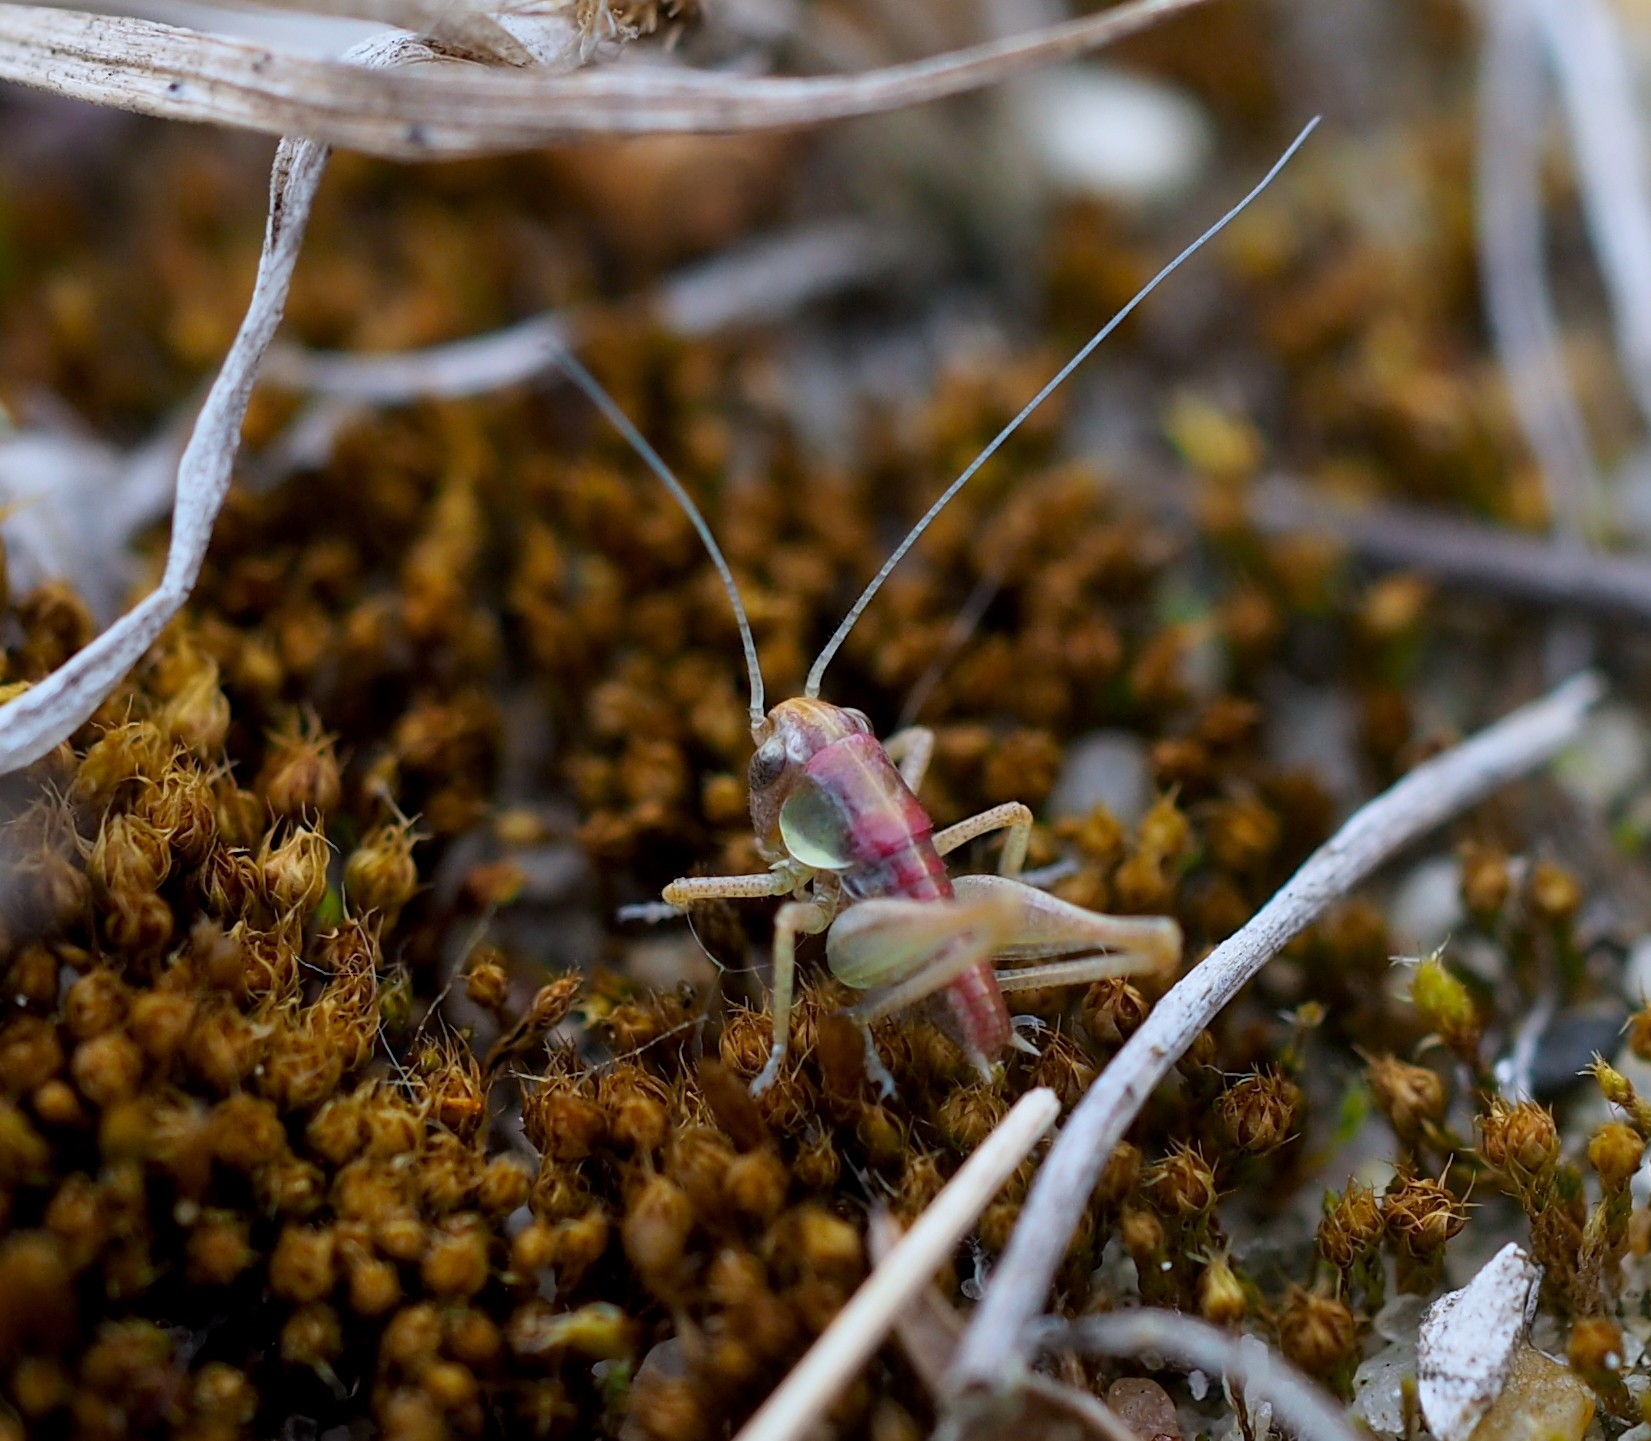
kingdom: Animalia
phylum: Arthropoda
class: Insecta
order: Orthoptera
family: Tettigoniidae
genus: Platycleis
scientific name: Platycleis grisea
